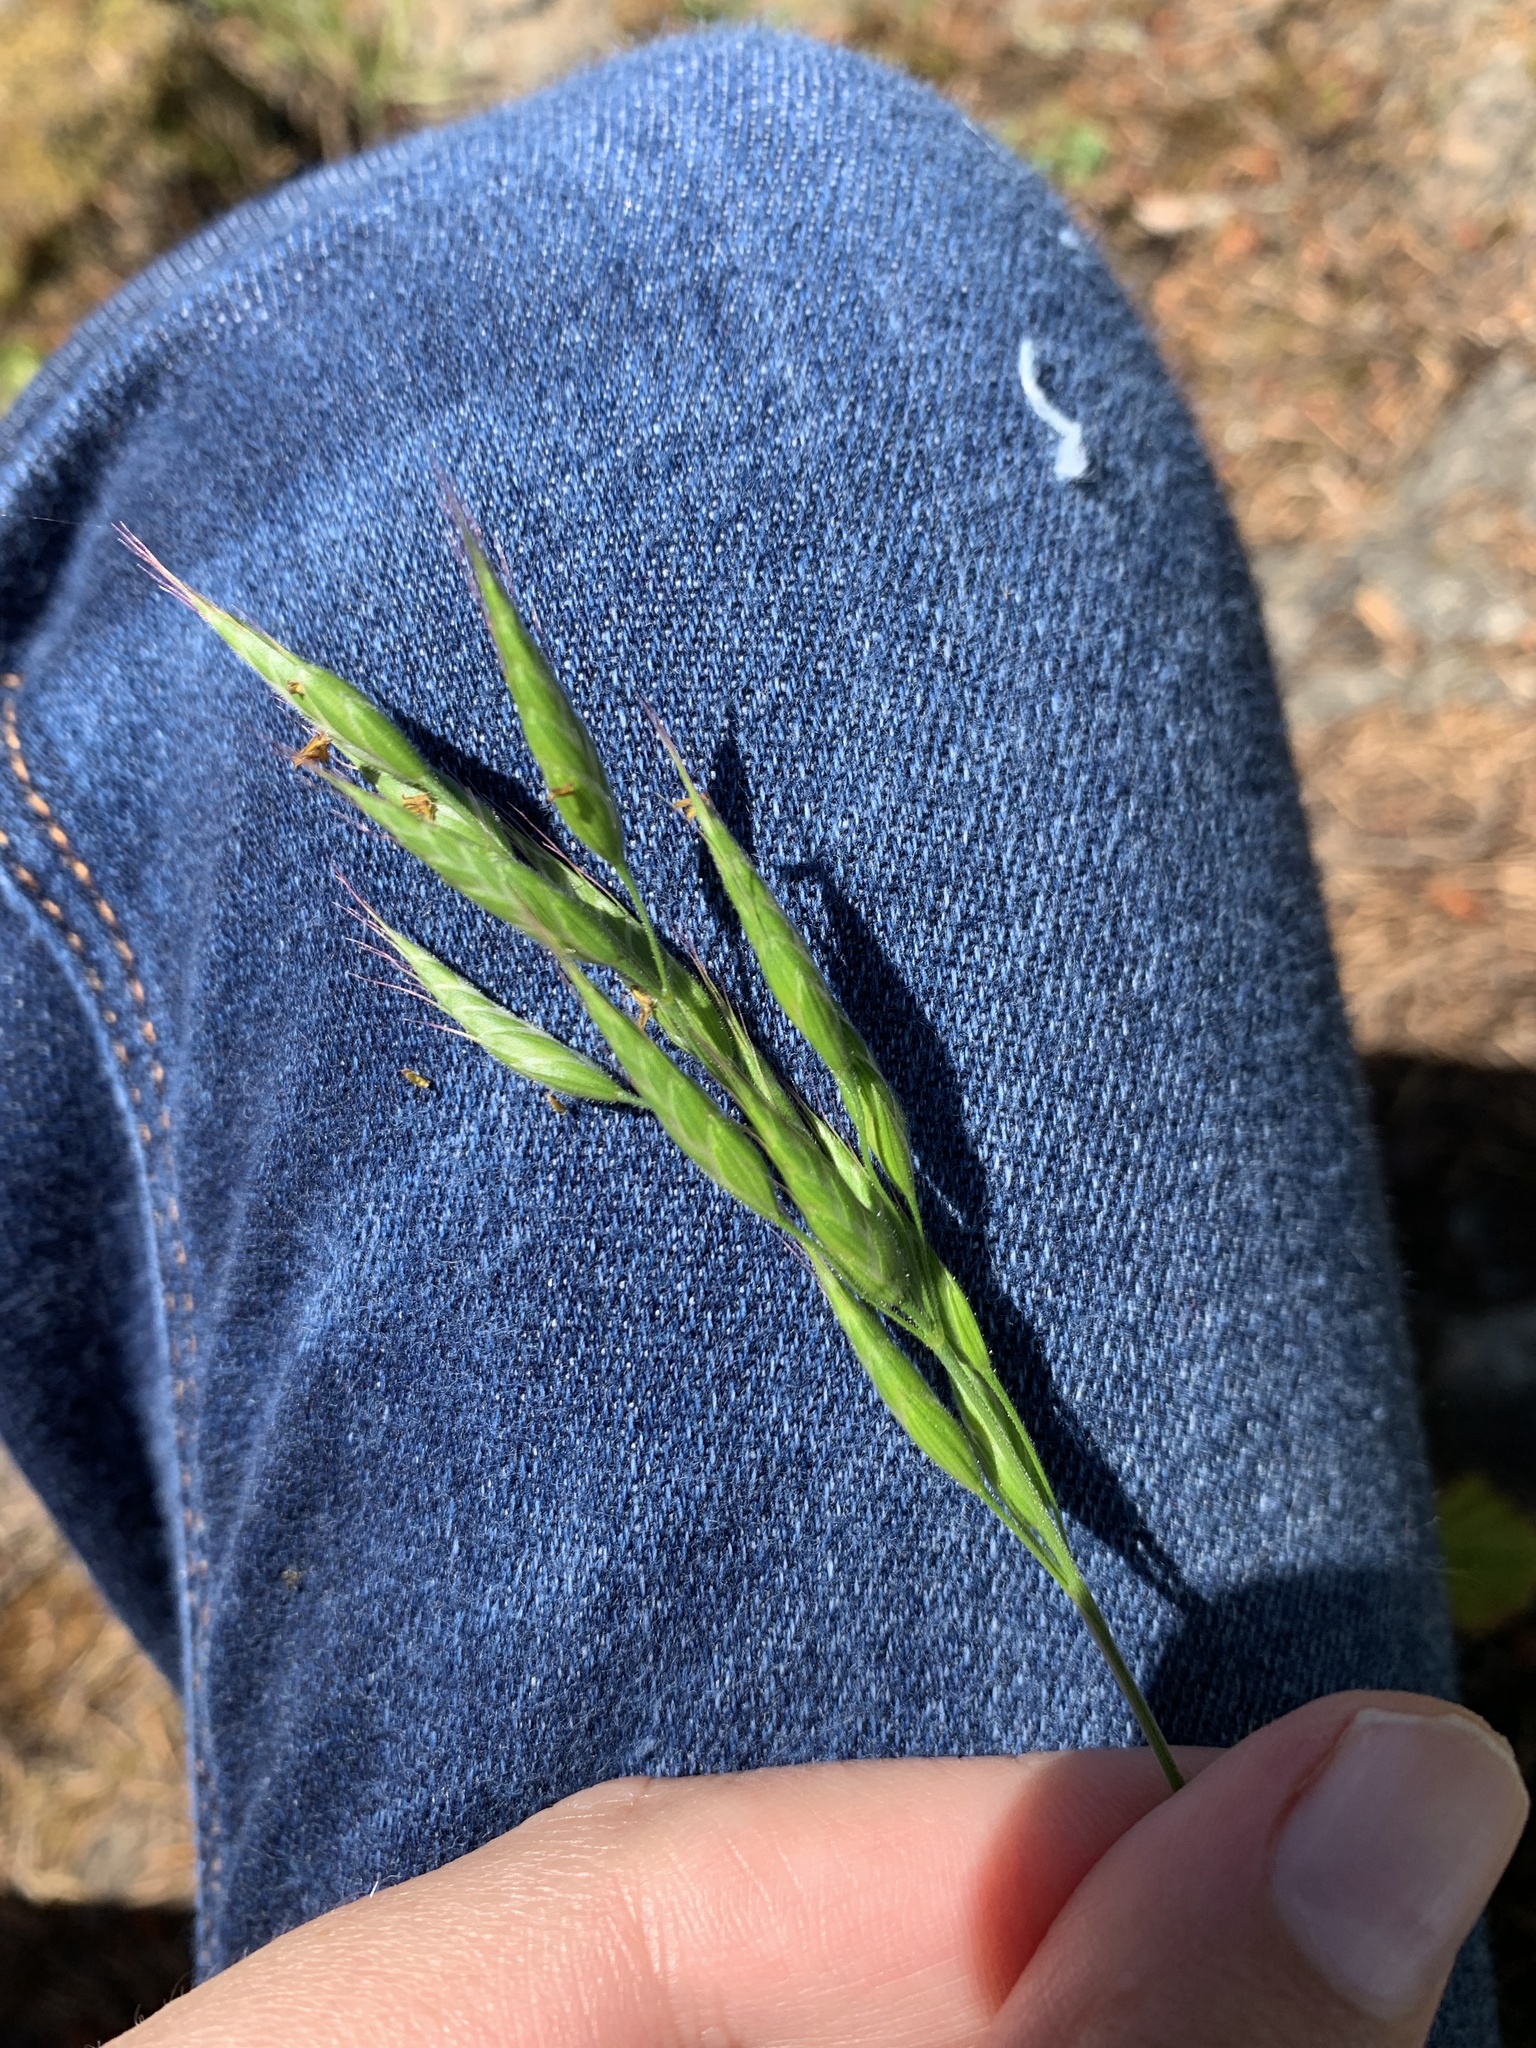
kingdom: Plantae
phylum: Tracheophyta
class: Liliopsida
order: Poales
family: Poaceae
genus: Bromus
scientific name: Bromus hordeaceus
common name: Soft brome
